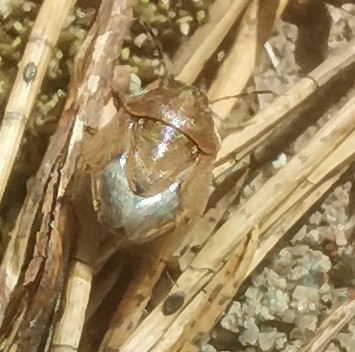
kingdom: Animalia
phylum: Arthropoda
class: Insecta
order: Hemiptera
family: Pentatomidae
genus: Neottiglossa
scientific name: Neottiglossa pusilla
